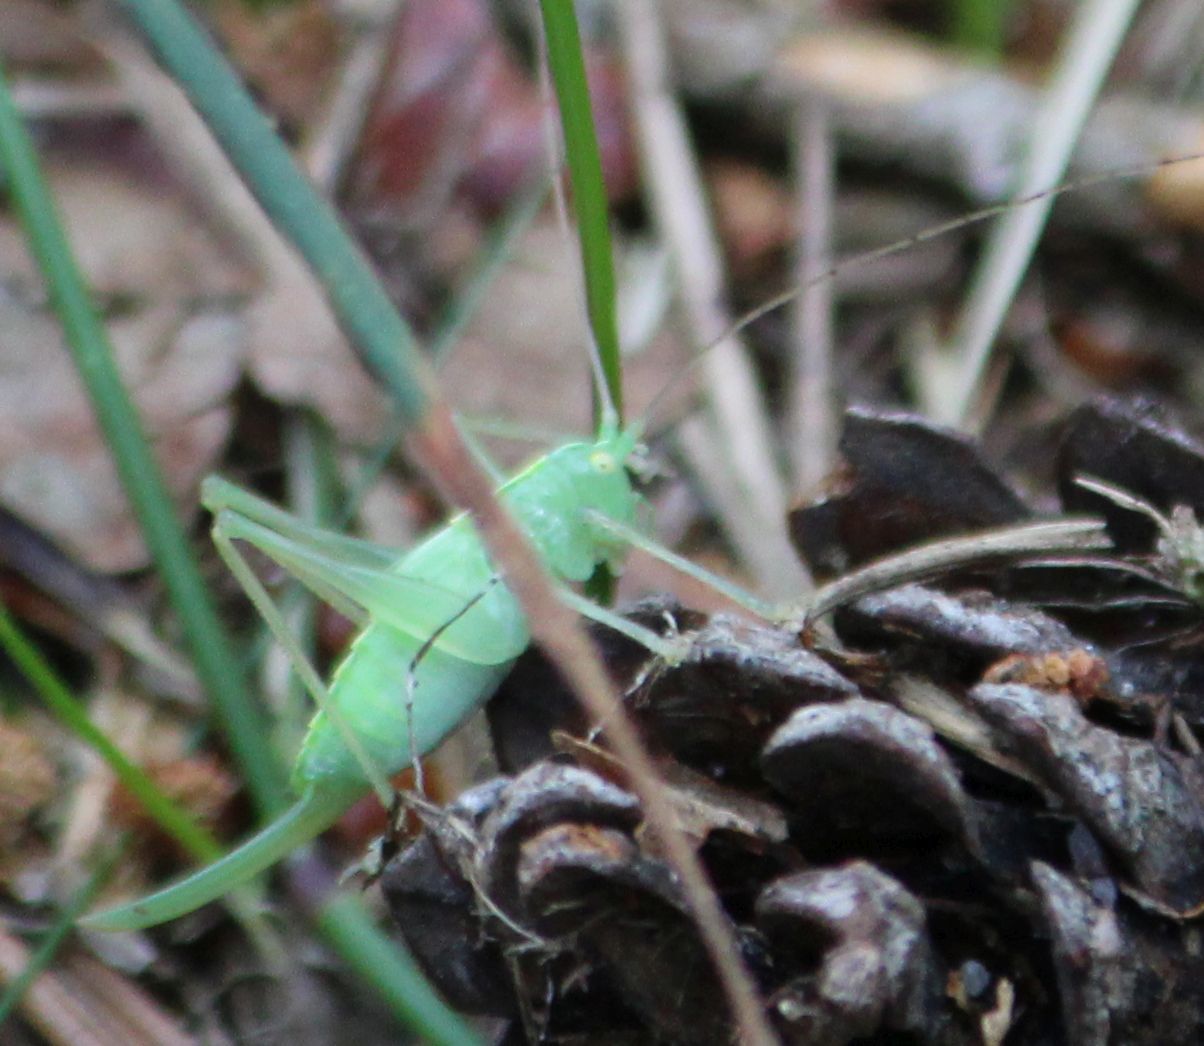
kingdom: Animalia
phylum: Arthropoda
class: Insecta
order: Orthoptera
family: Tettigoniidae
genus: Meconema
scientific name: Meconema thalassinum
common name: Oak bush-cricket
